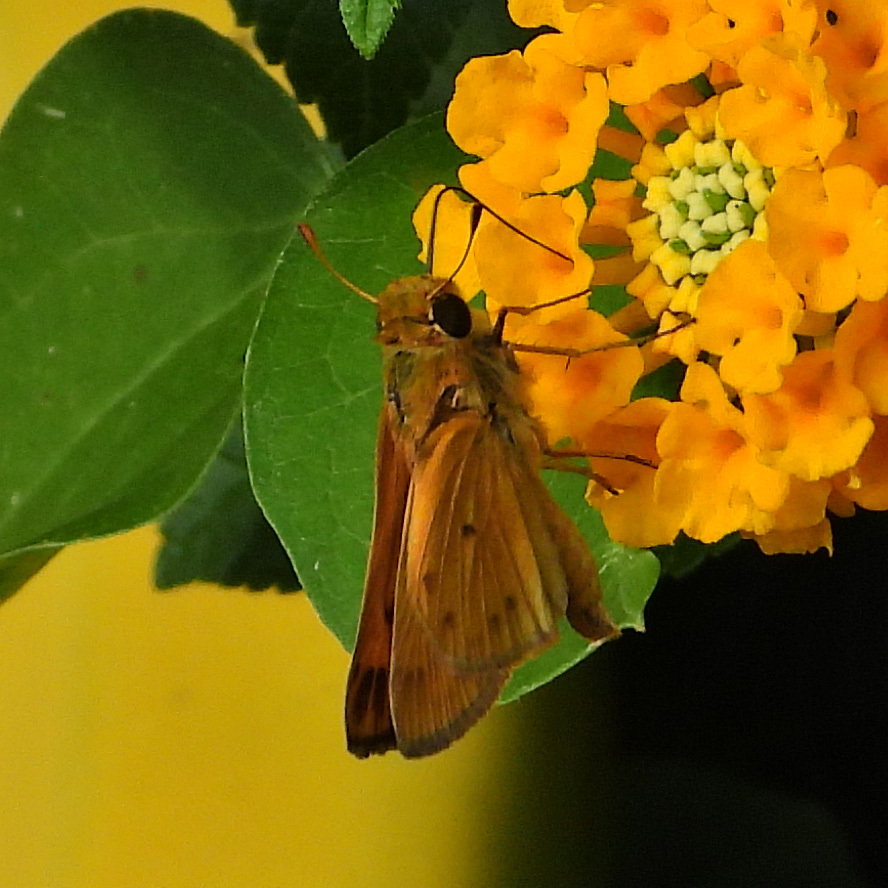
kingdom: Animalia
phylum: Arthropoda
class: Insecta
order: Lepidoptera
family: Hesperiidae
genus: Hylephila
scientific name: Hylephila phyleus
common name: Fiery skipper
